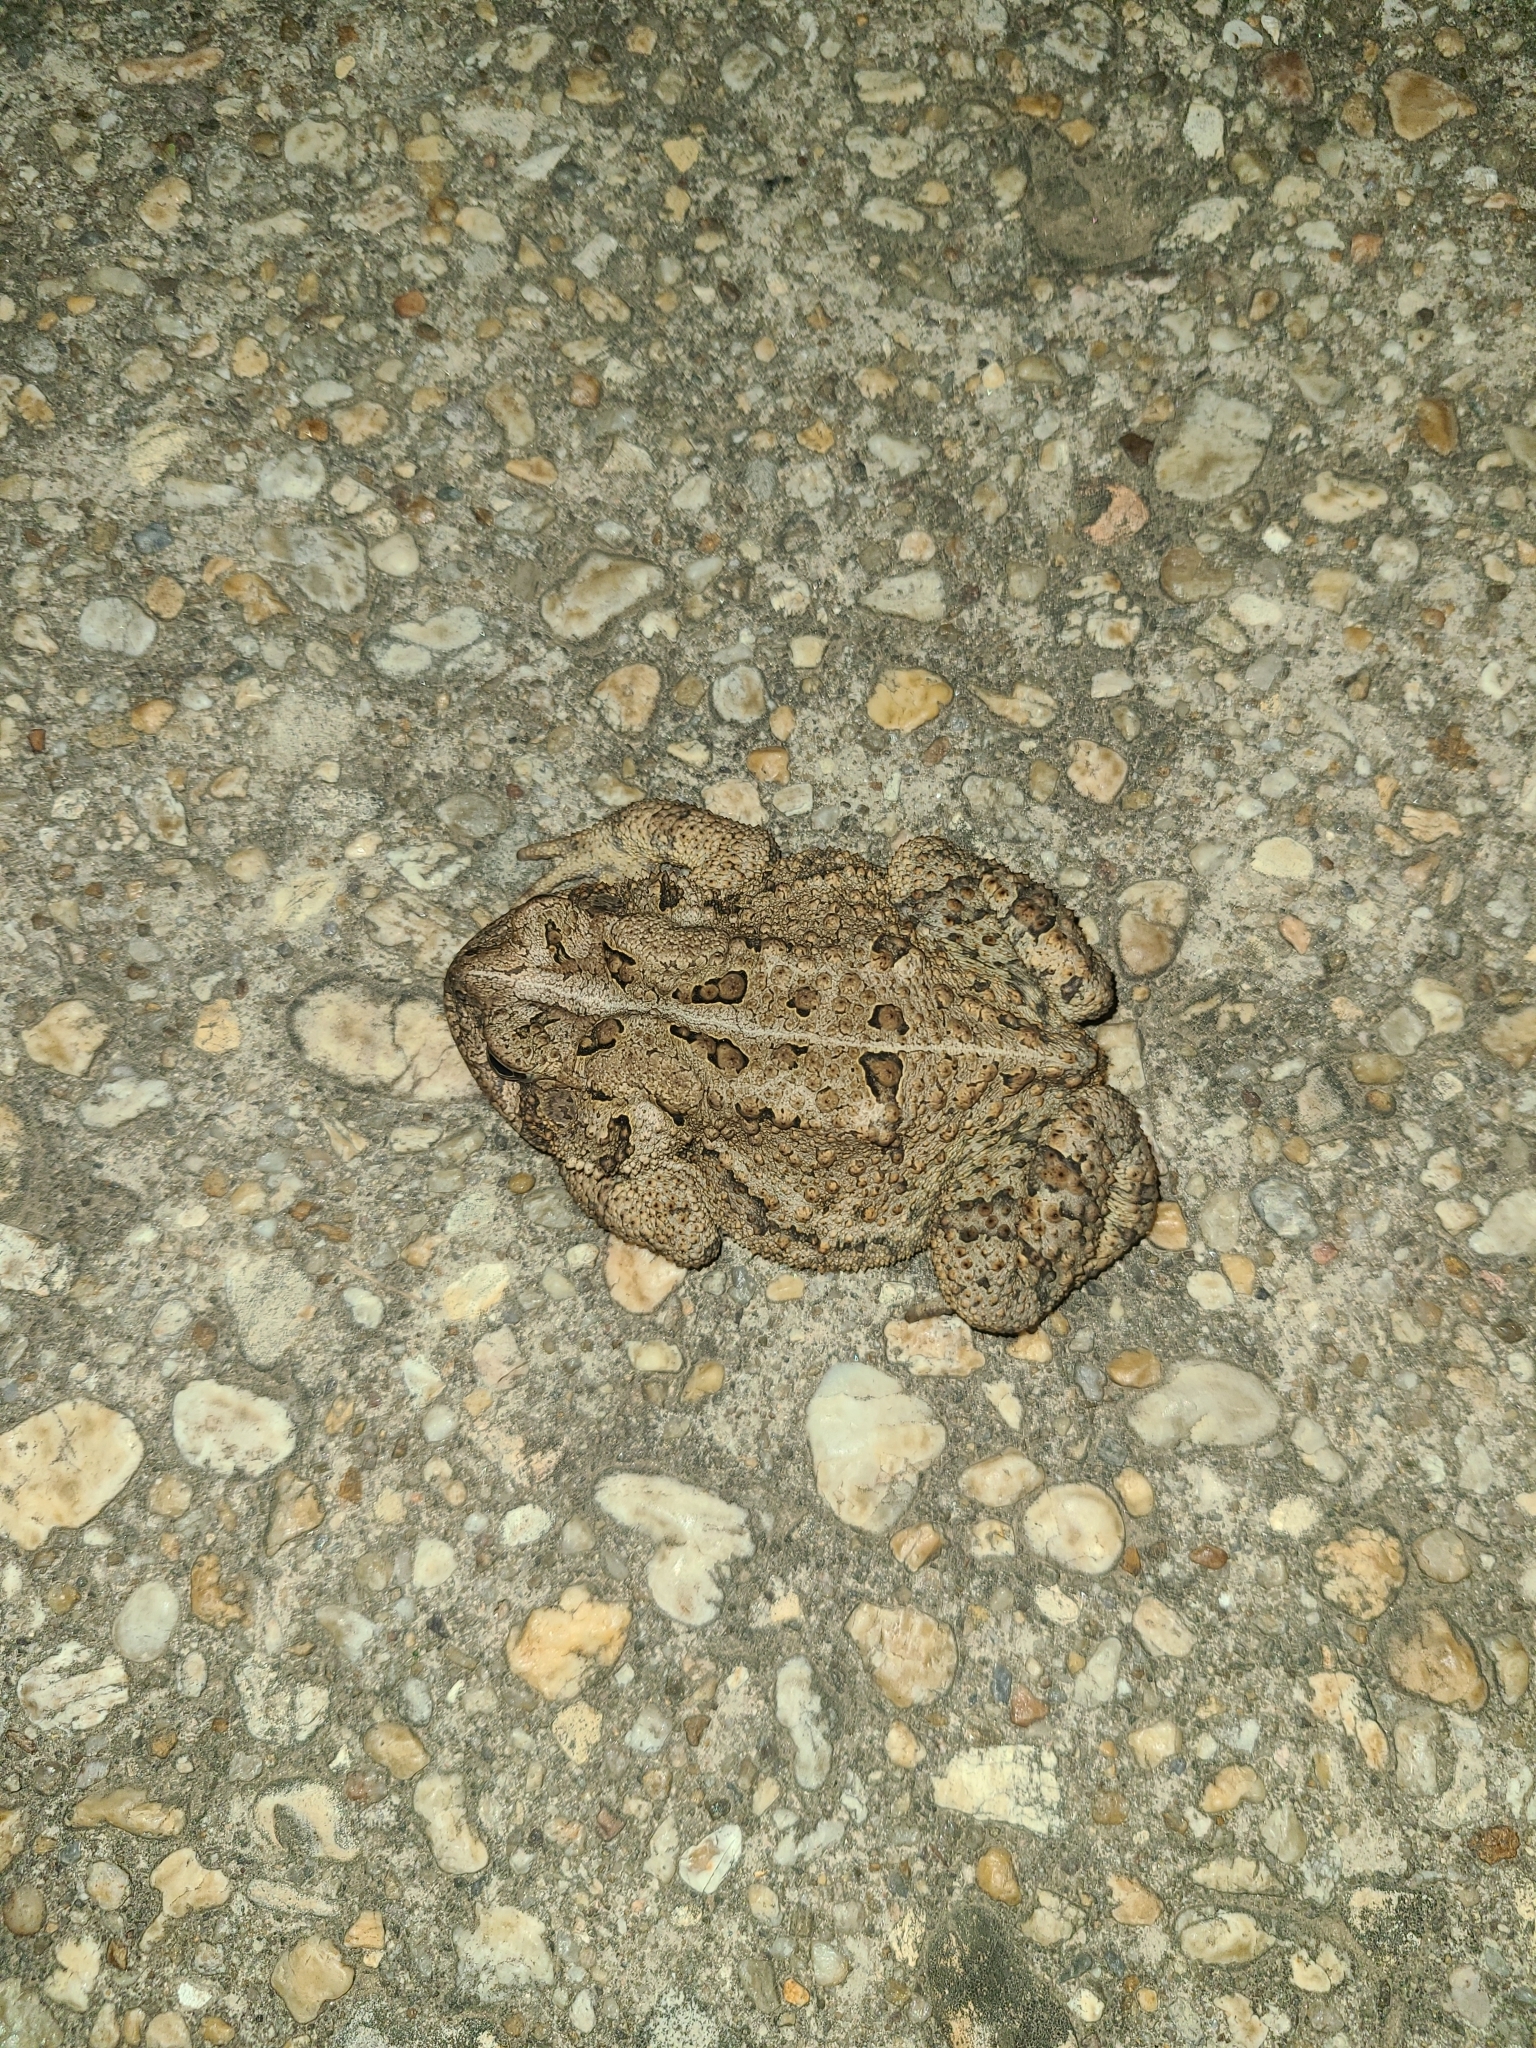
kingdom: Animalia
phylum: Chordata
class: Amphibia
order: Anura
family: Bufonidae
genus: Anaxyrus
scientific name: Anaxyrus americanus
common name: American toad
